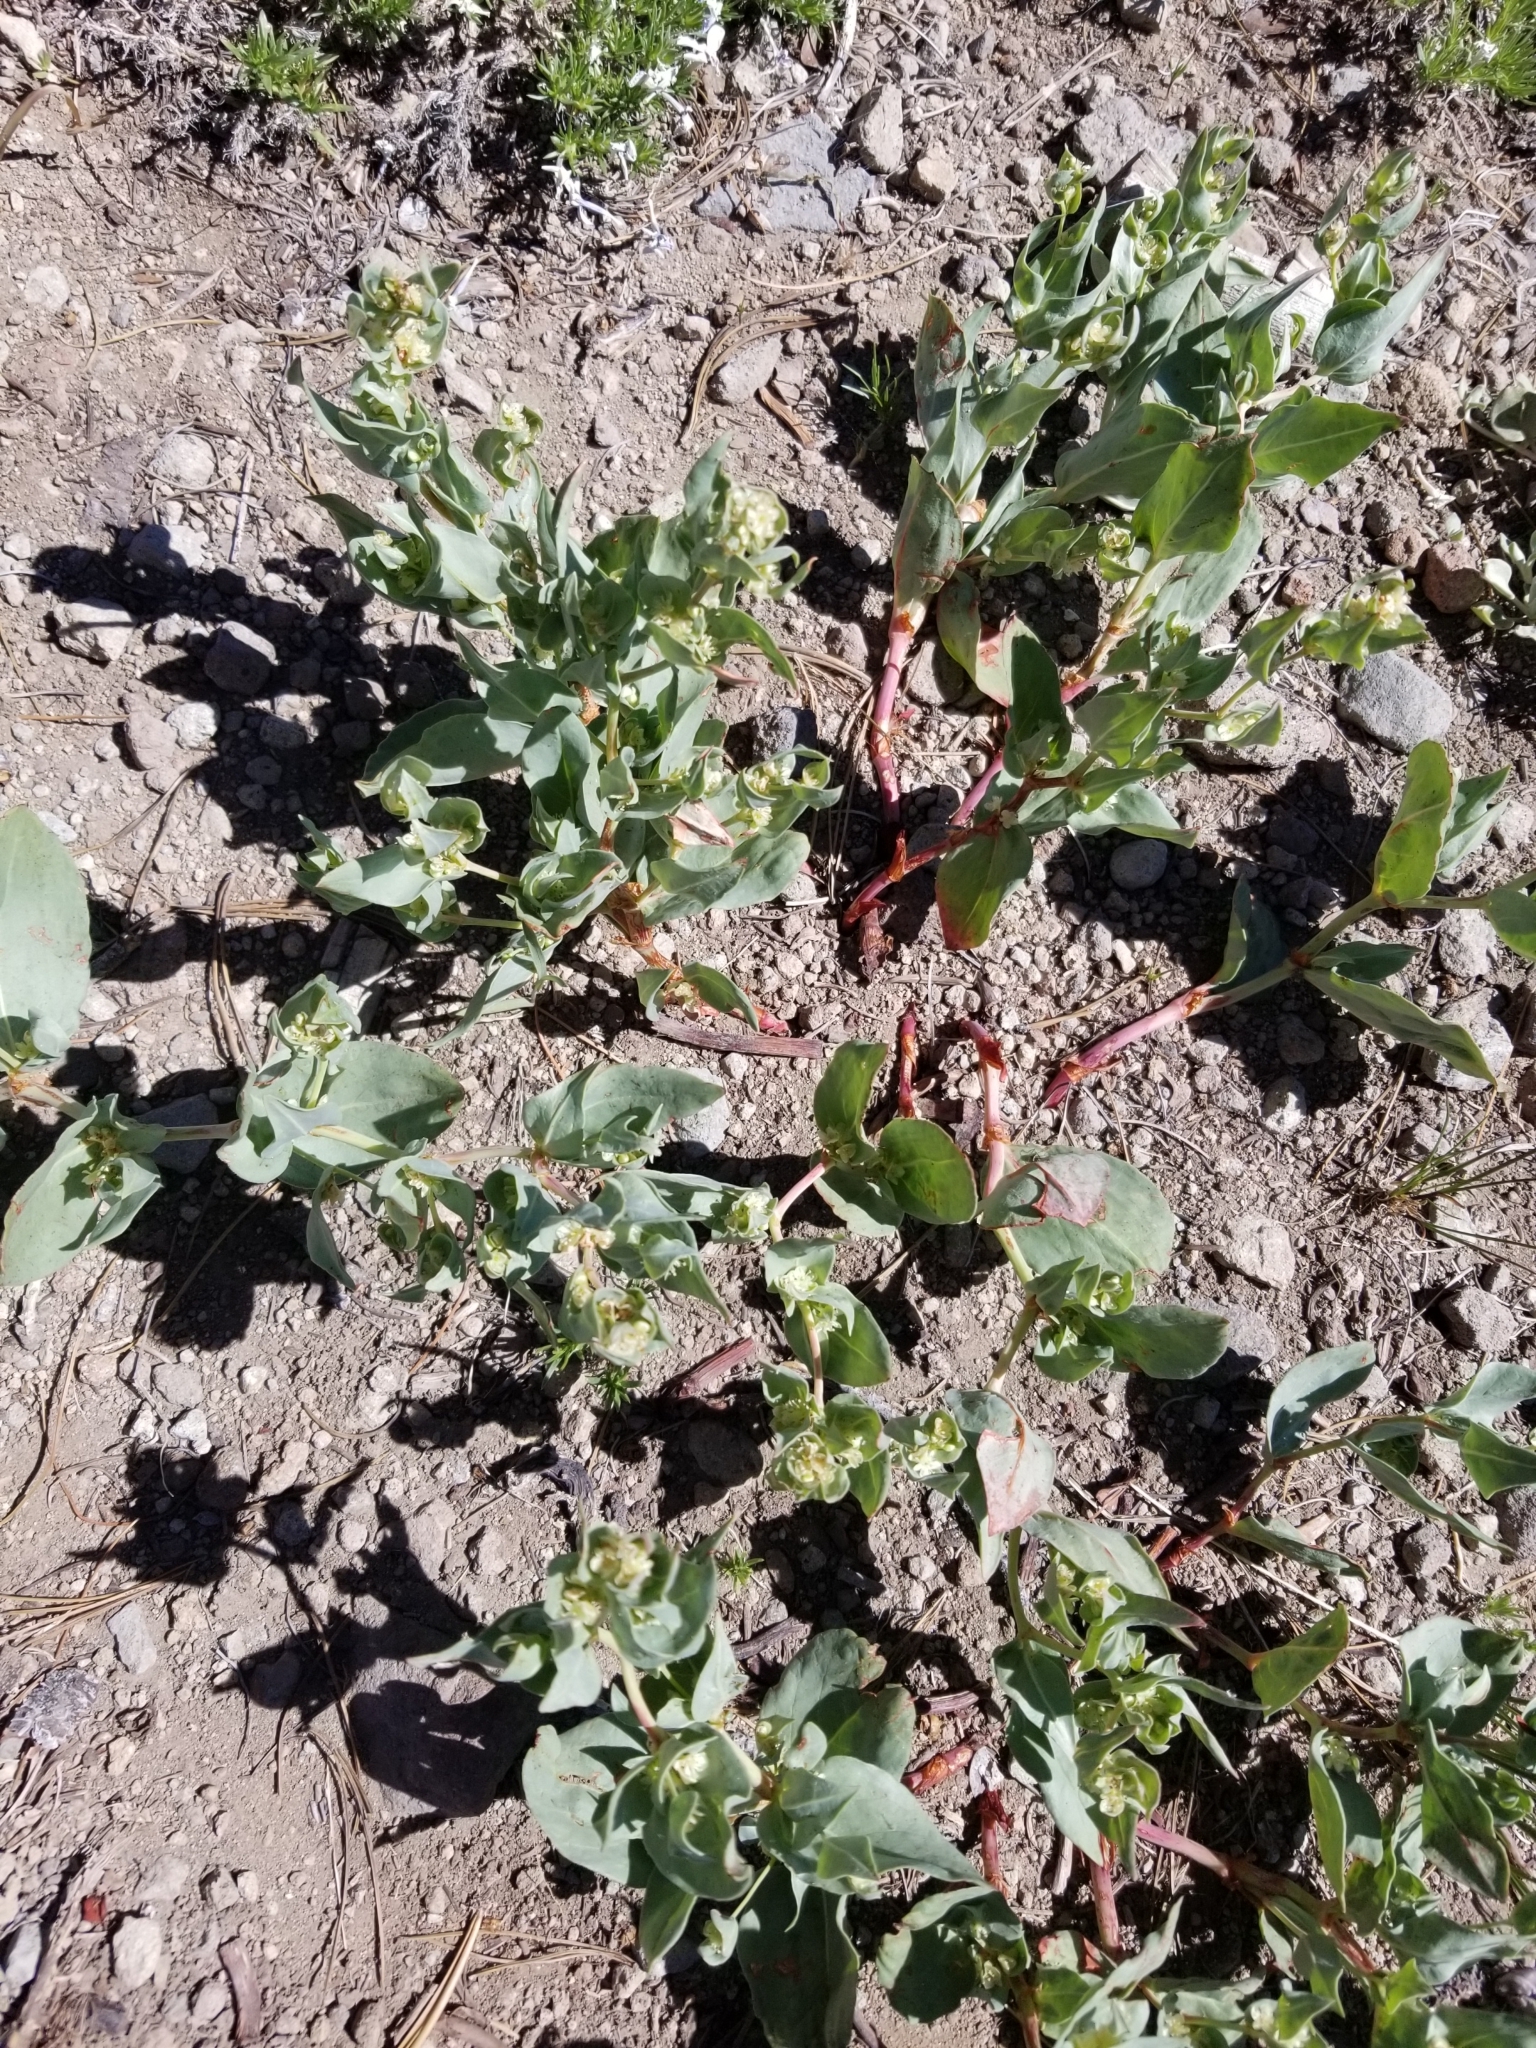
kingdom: Plantae
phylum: Tracheophyta
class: Magnoliopsida
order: Caryophyllales
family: Polygonaceae
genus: Koenigia
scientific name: Koenigia davisiae
